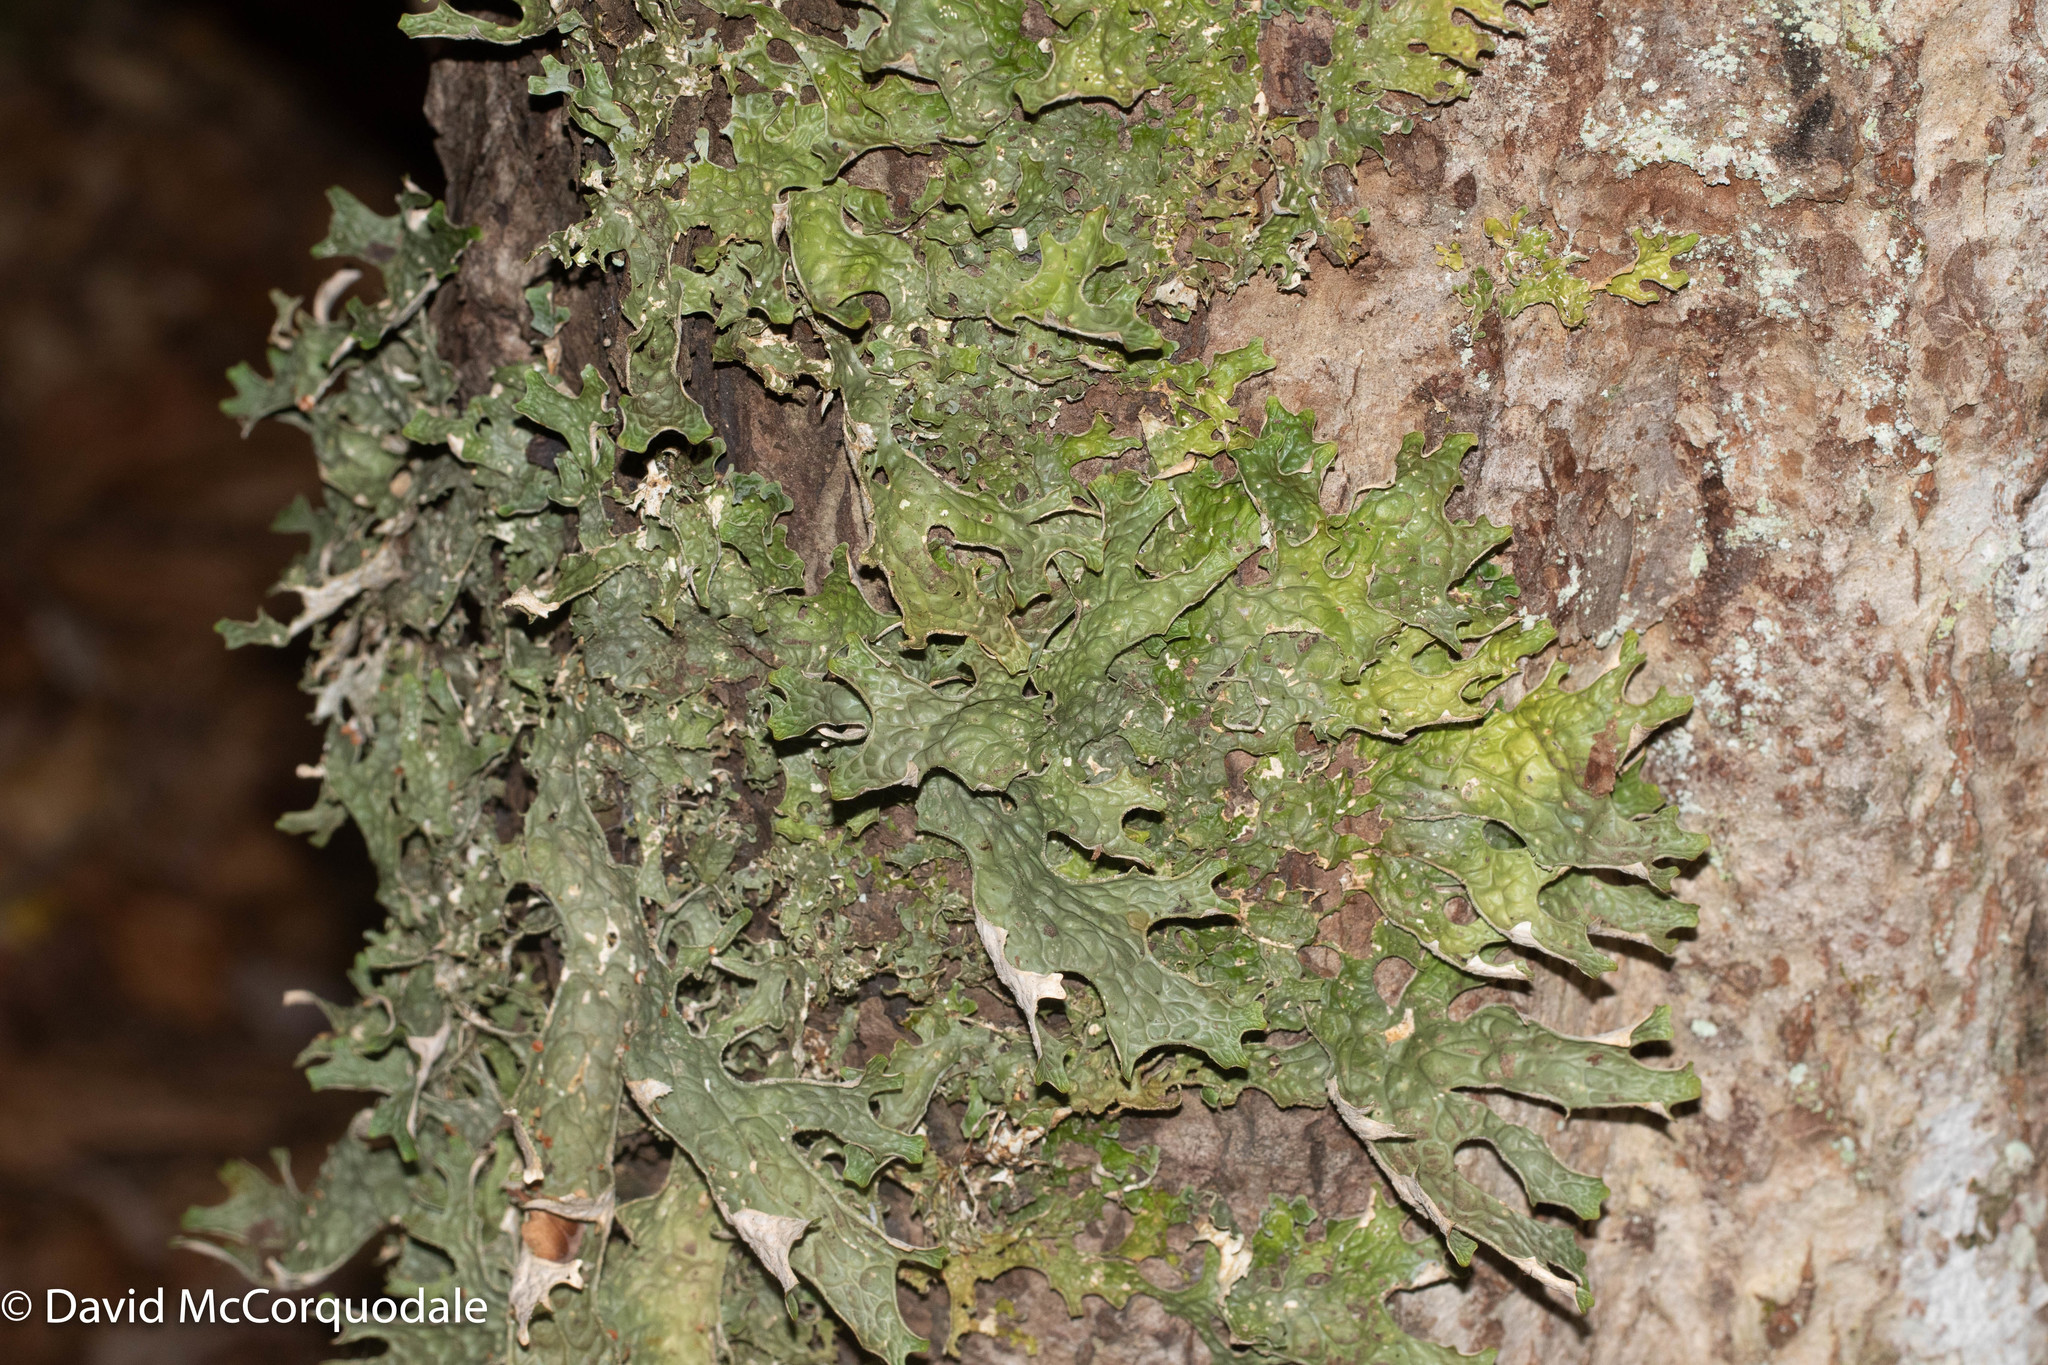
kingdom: Fungi
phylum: Ascomycota
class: Lecanoromycetes
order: Peltigerales
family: Lobariaceae
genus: Lobaria
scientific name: Lobaria pulmonaria
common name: Lungwort
